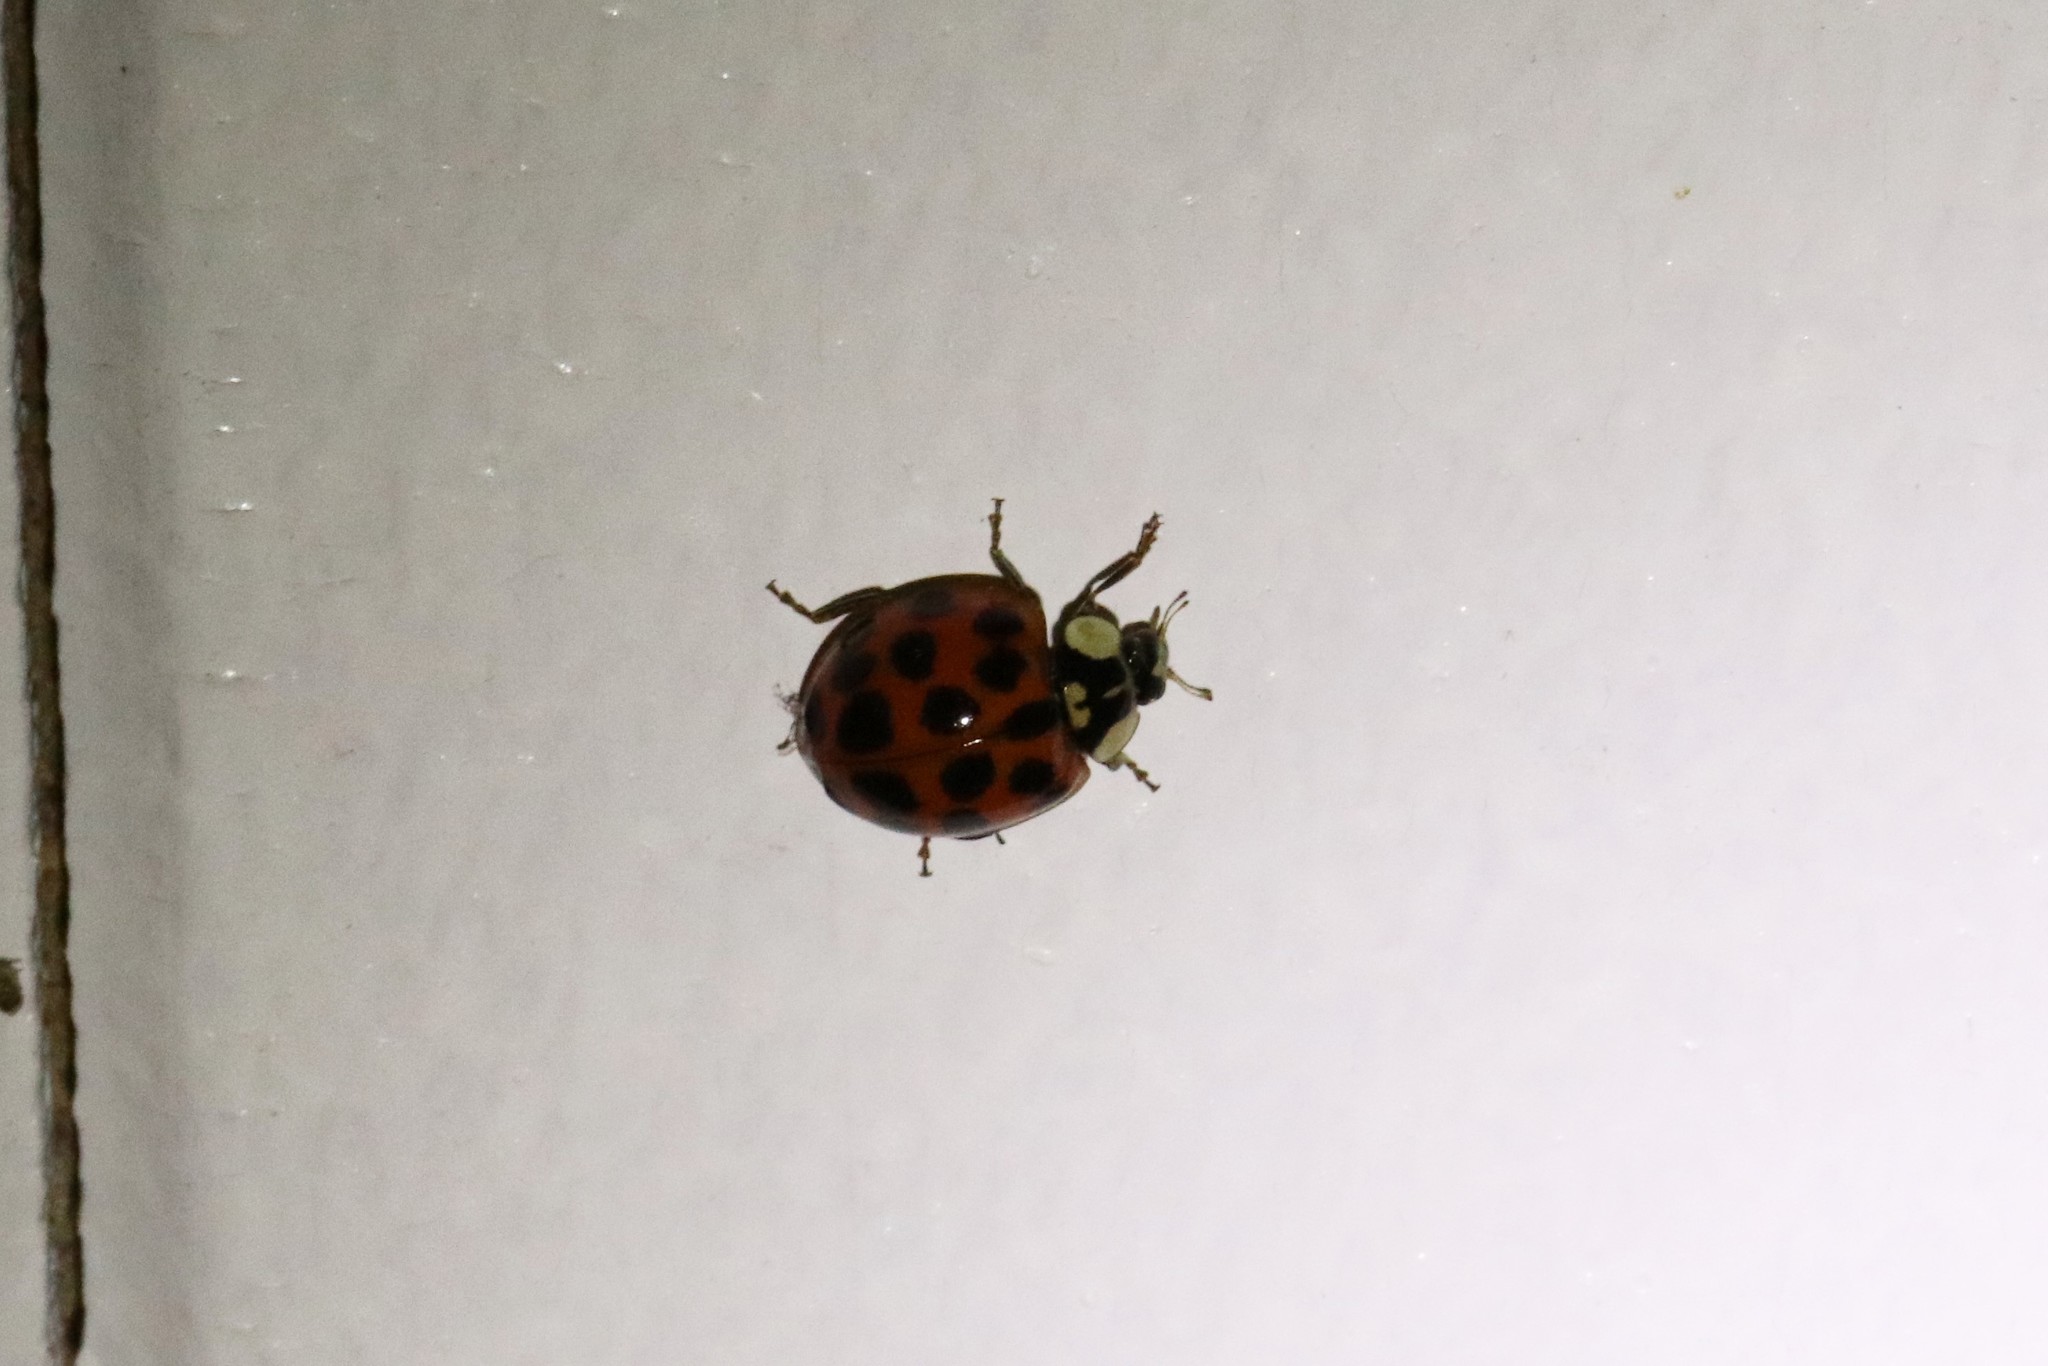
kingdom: Animalia
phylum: Arthropoda
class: Insecta
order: Coleoptera
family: Coccinellidae
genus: Harmonia
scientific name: Harmonia axyridis
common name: Harlequin ladybird
